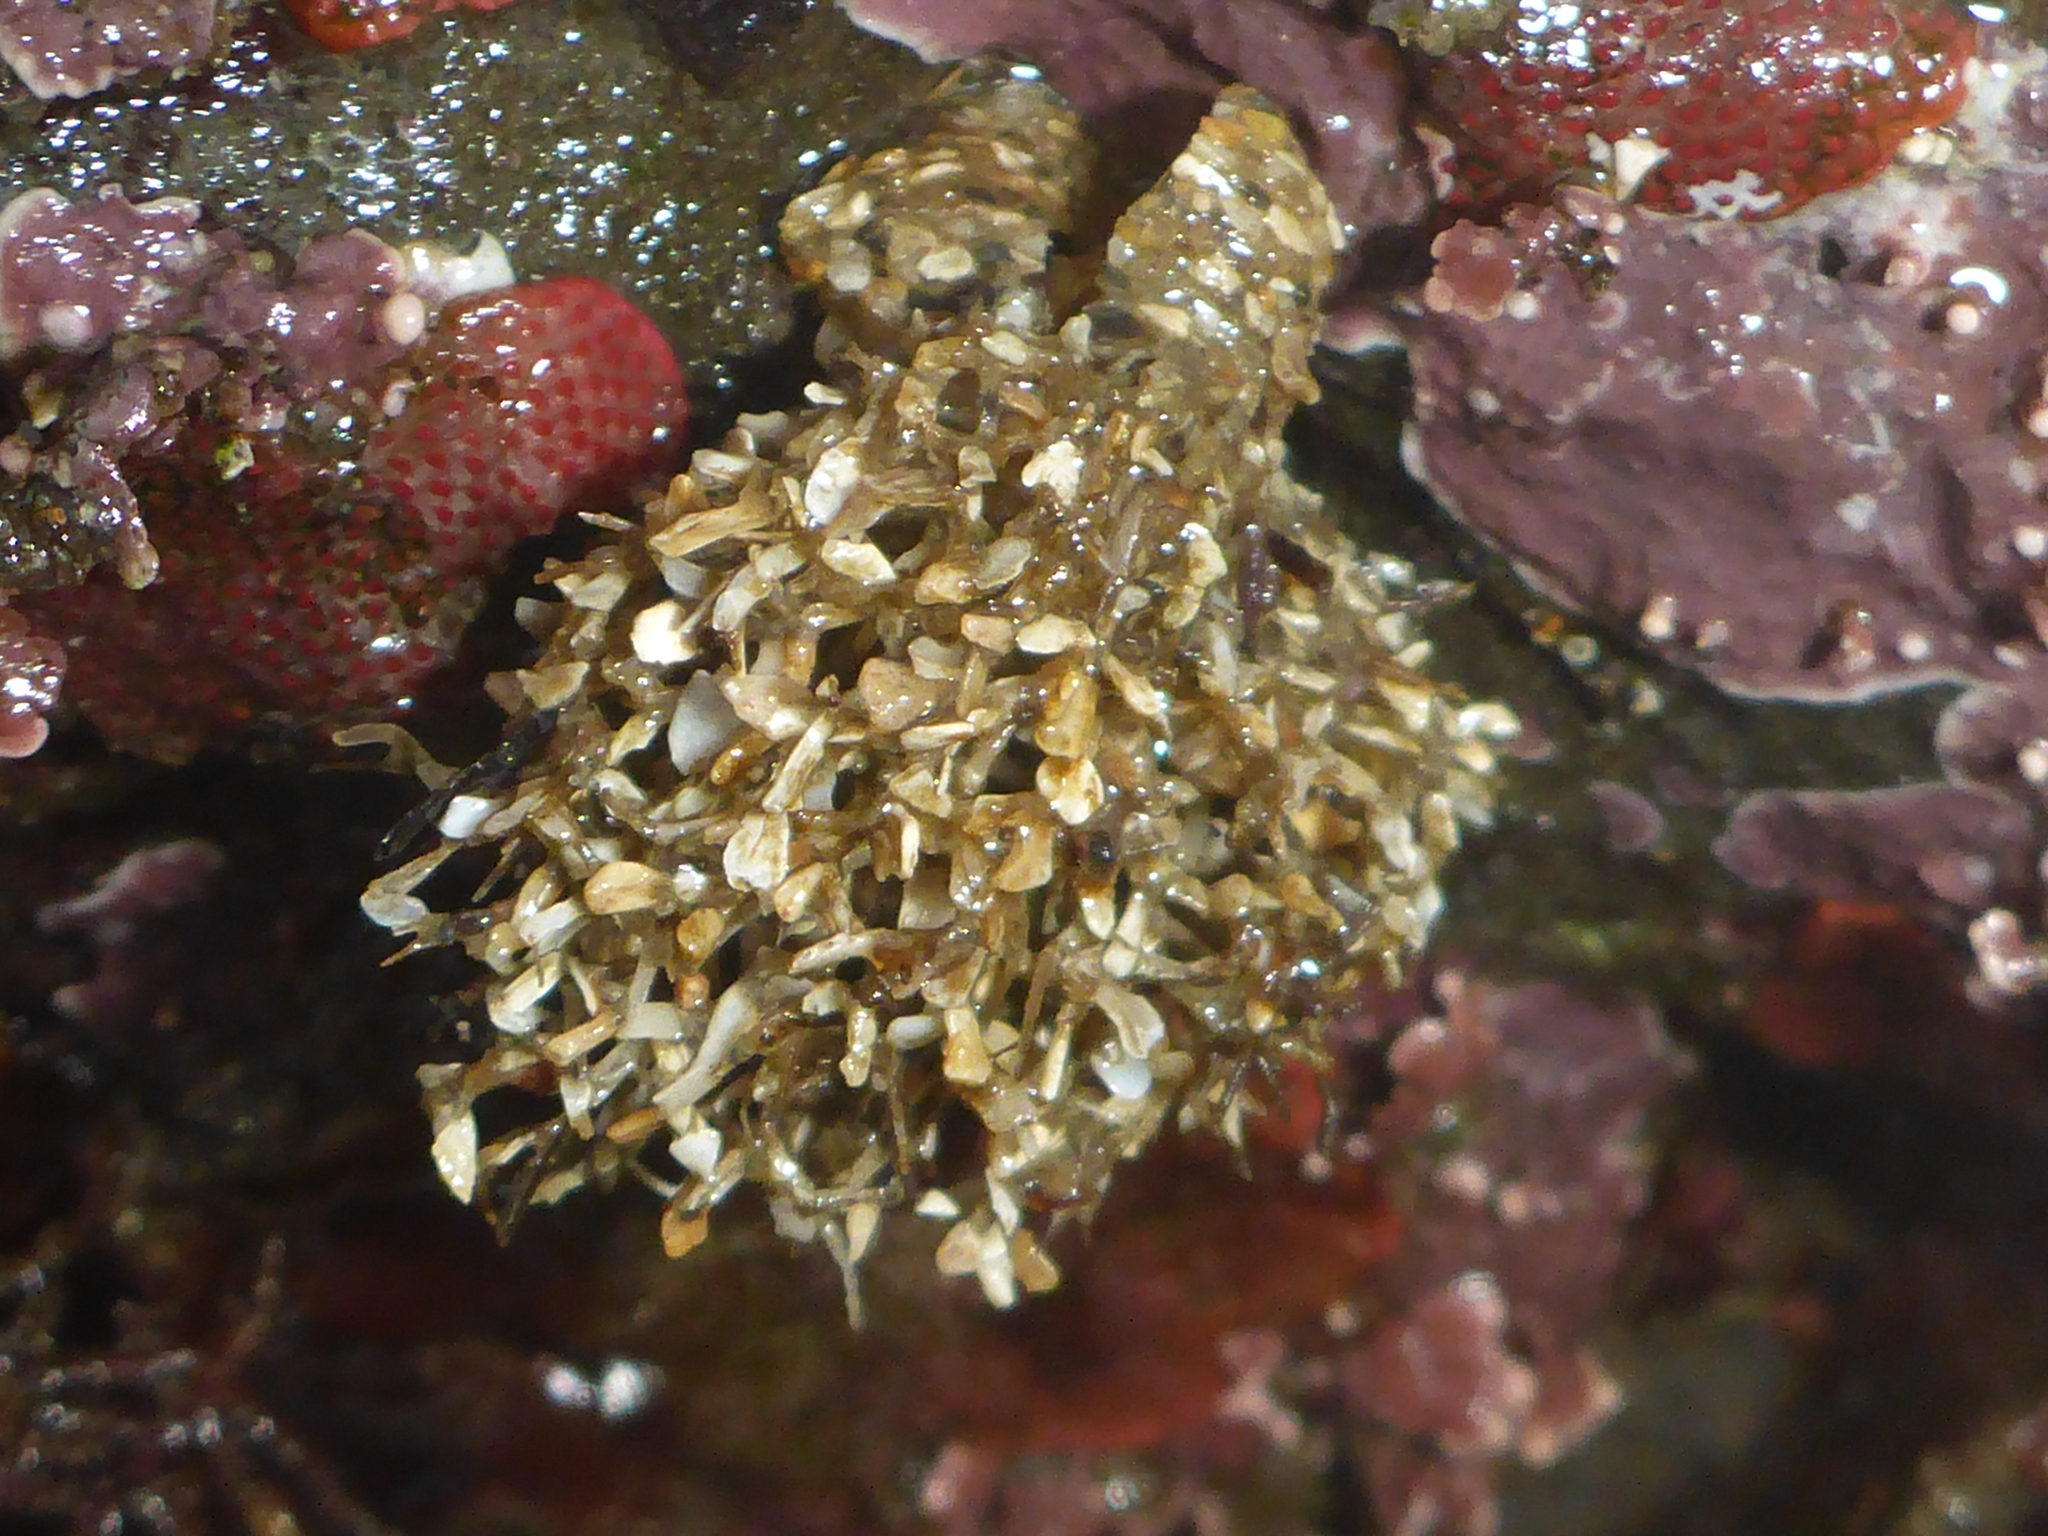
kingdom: Animalia
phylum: Annelida
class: Polychaeta
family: Terebellidae
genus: Pista
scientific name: Pista elongata
